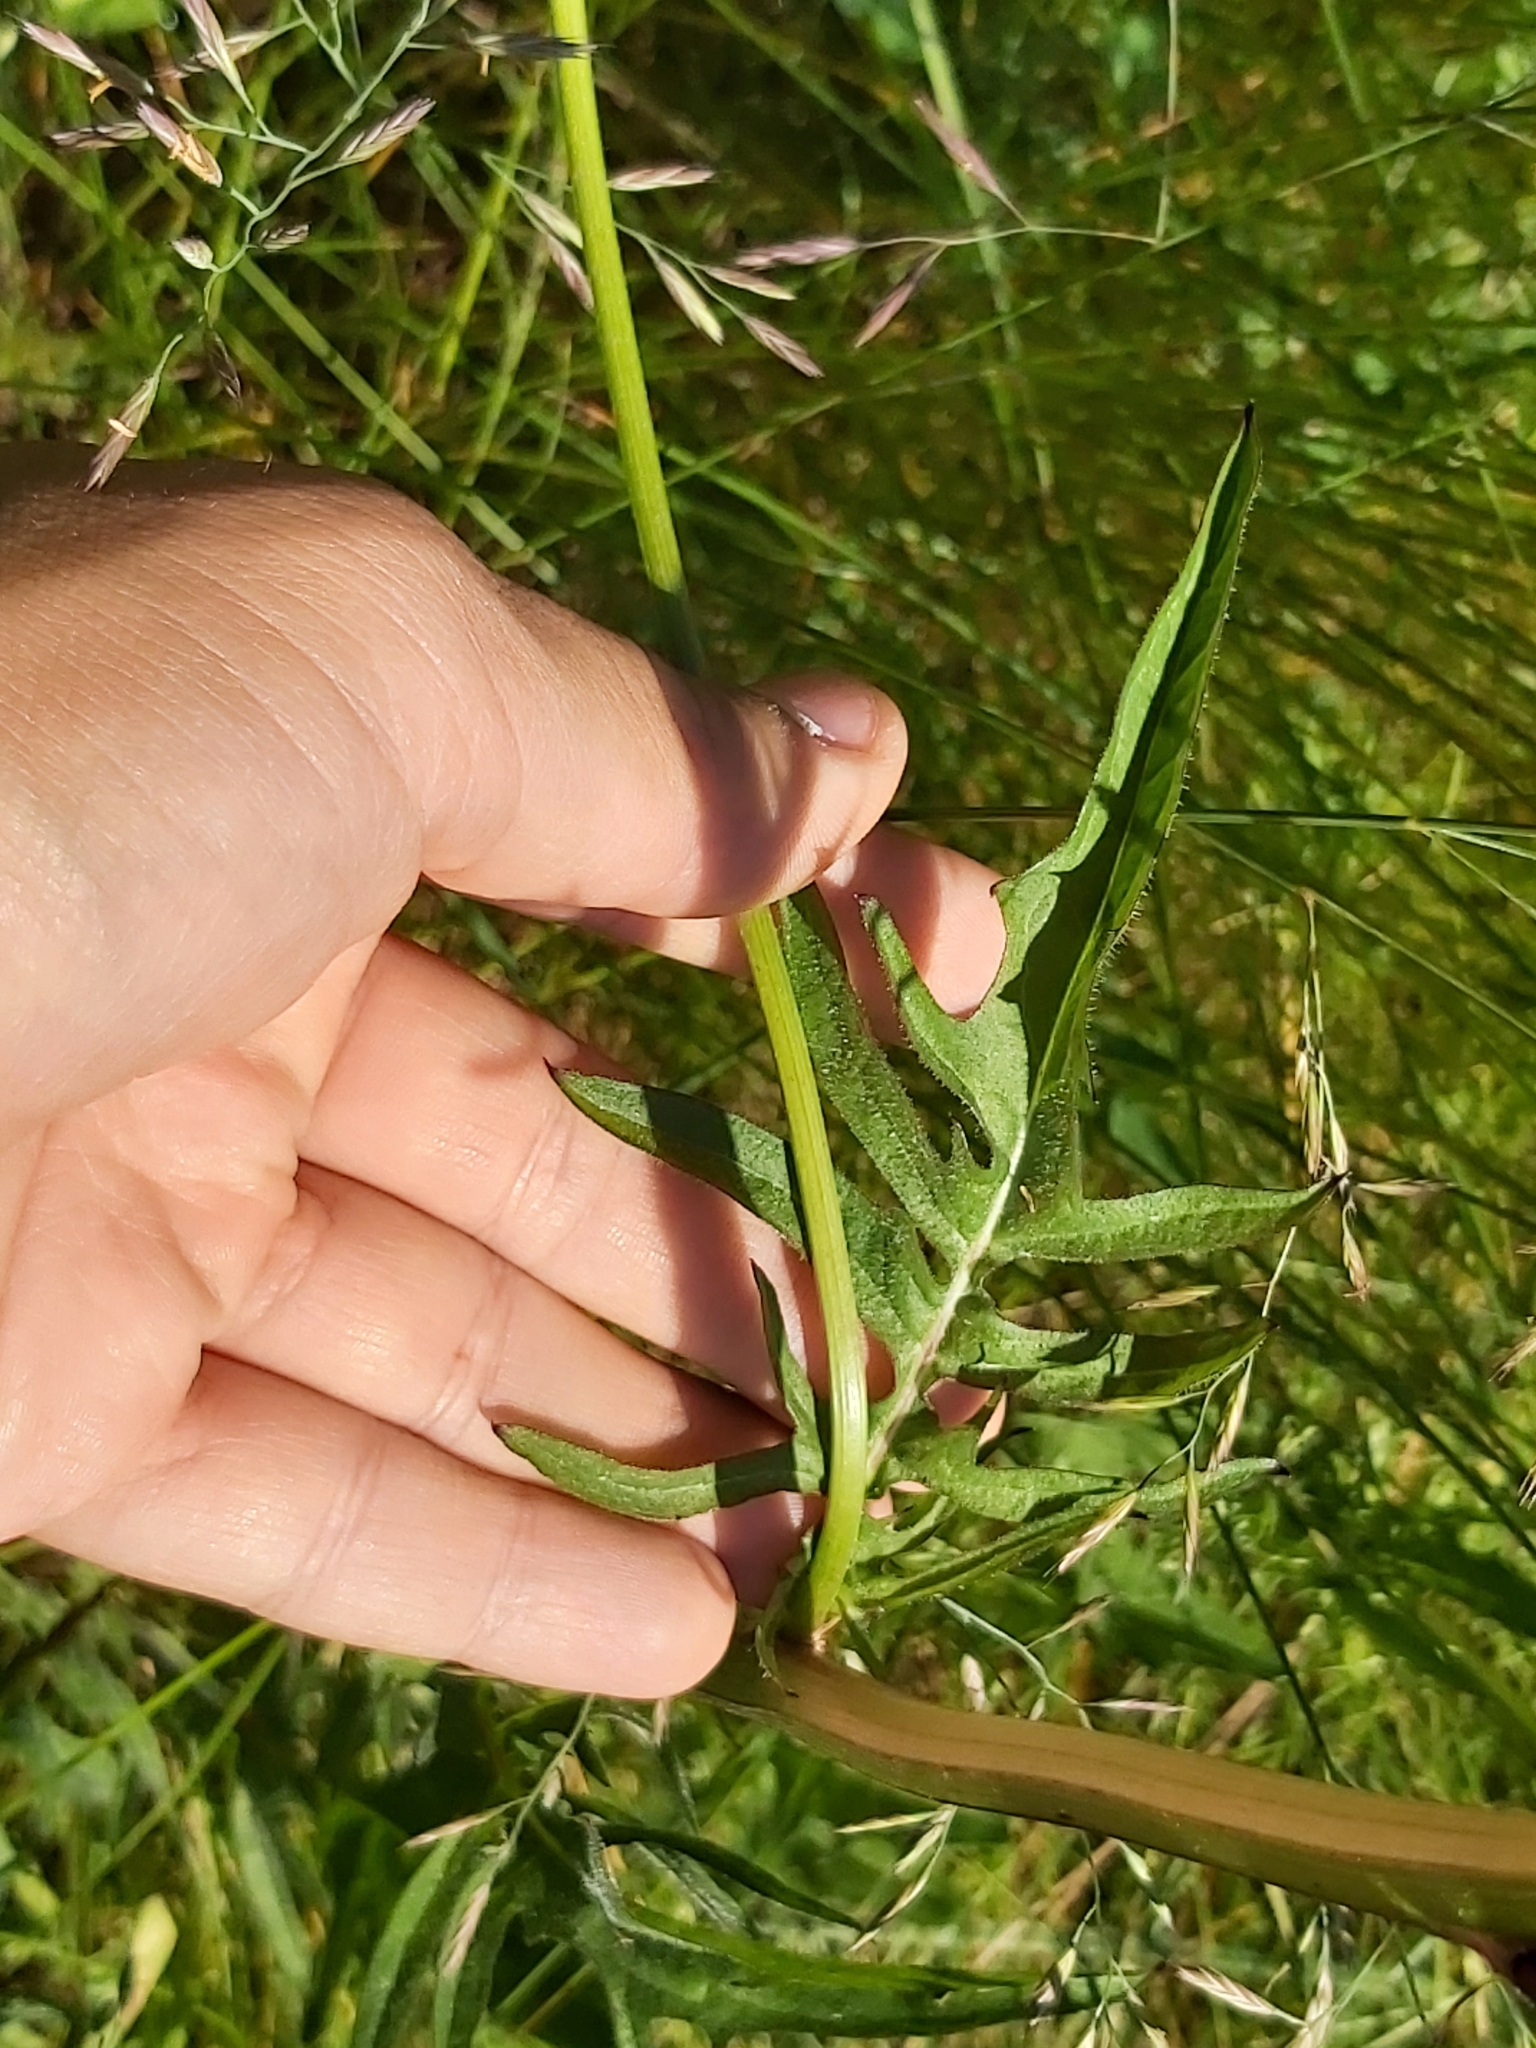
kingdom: Plantae
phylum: Tracheophyta
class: Magnoliopsida
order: Asterales
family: Asteraceae
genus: Crepis
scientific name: Crepis biennis
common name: Rough hawk's-beard
